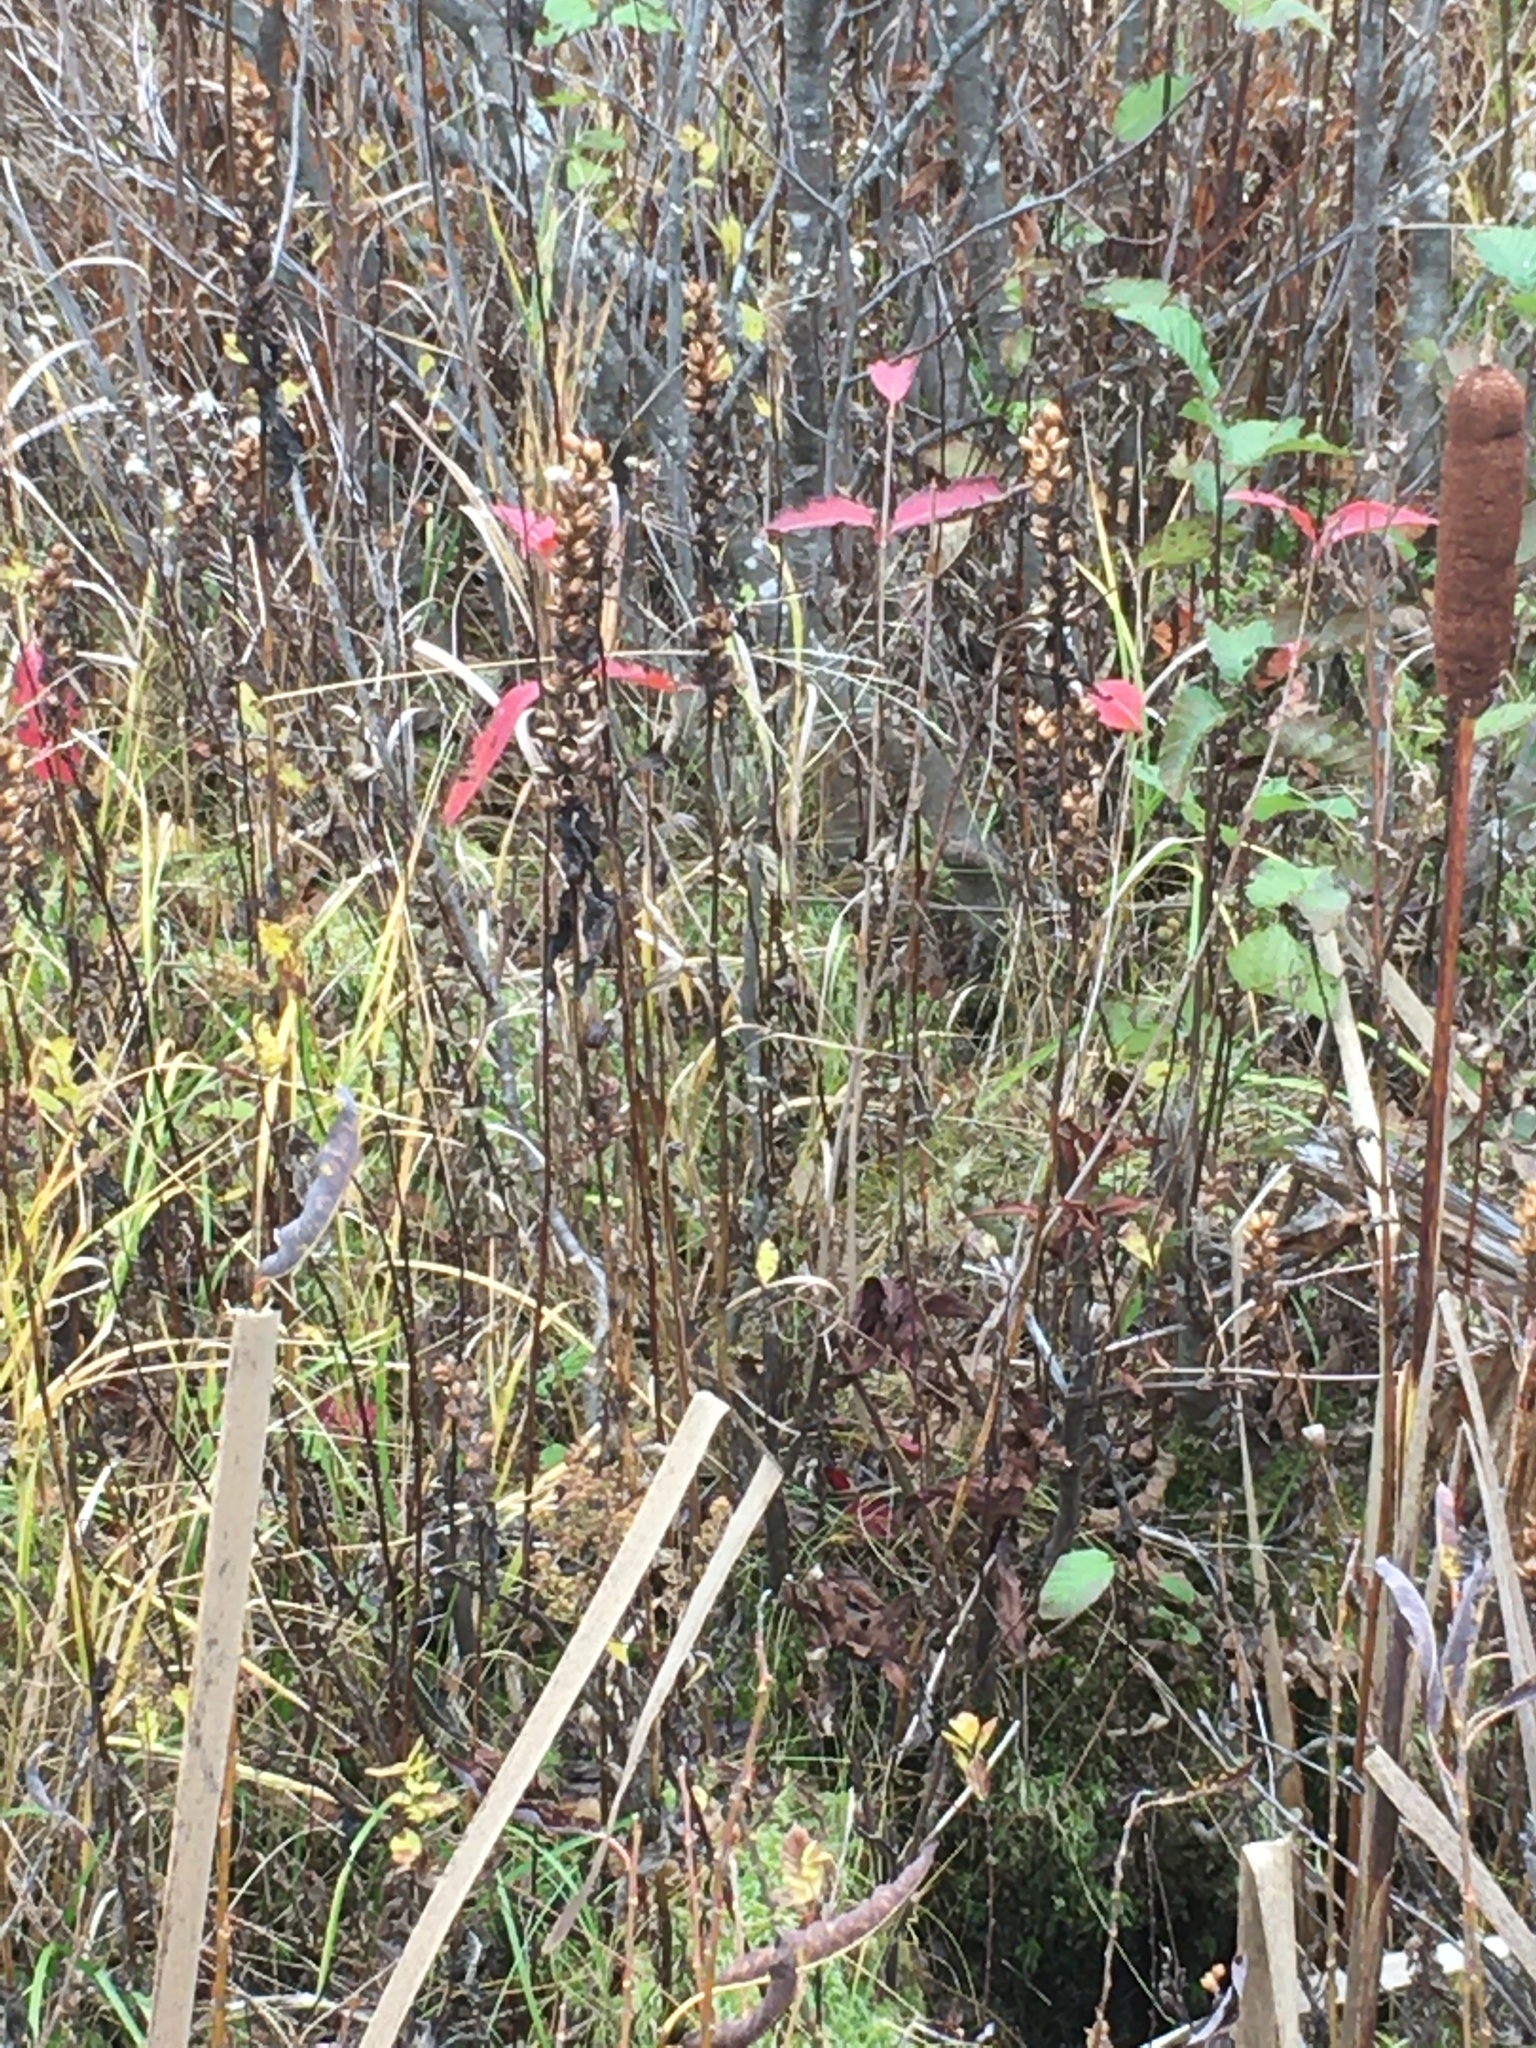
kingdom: Plantae
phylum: Tracheophyta
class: Magnoliopsida
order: Lamiales
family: Plantaginaceae
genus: Chelone
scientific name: Chelone glabra
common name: Snakehead
